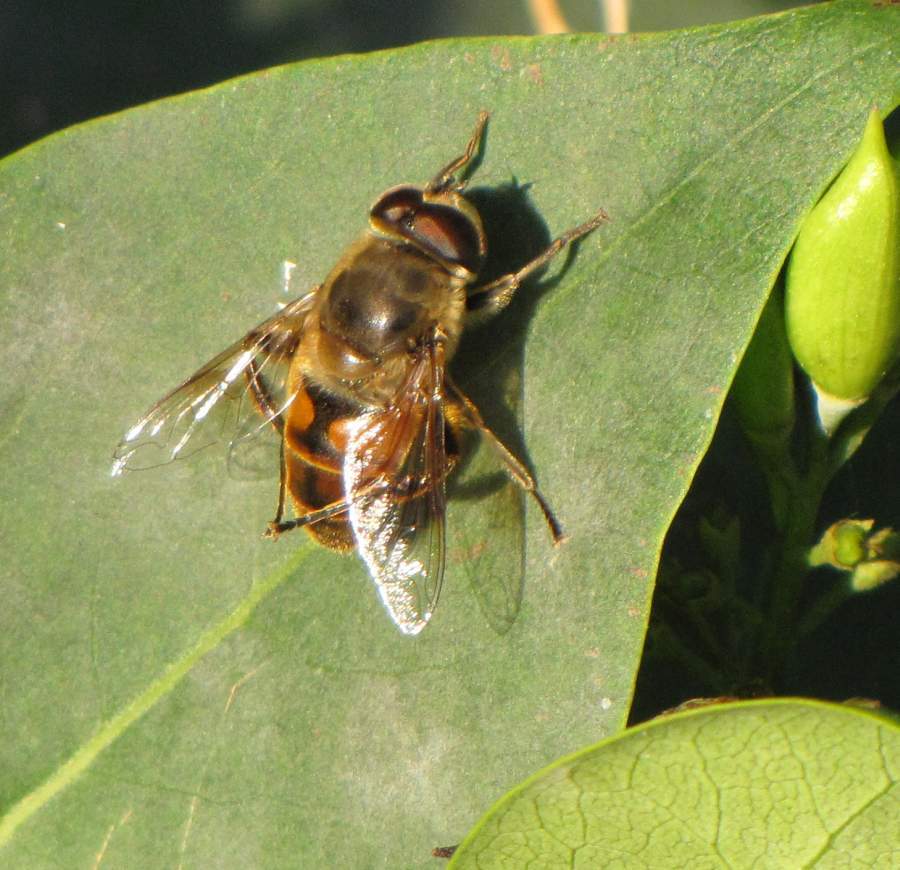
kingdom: Animalia
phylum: Arthropoda
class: Insecta
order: Diptera
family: Syrphidae
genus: Eristalis
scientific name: Eristalis tenax
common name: Drone fly
